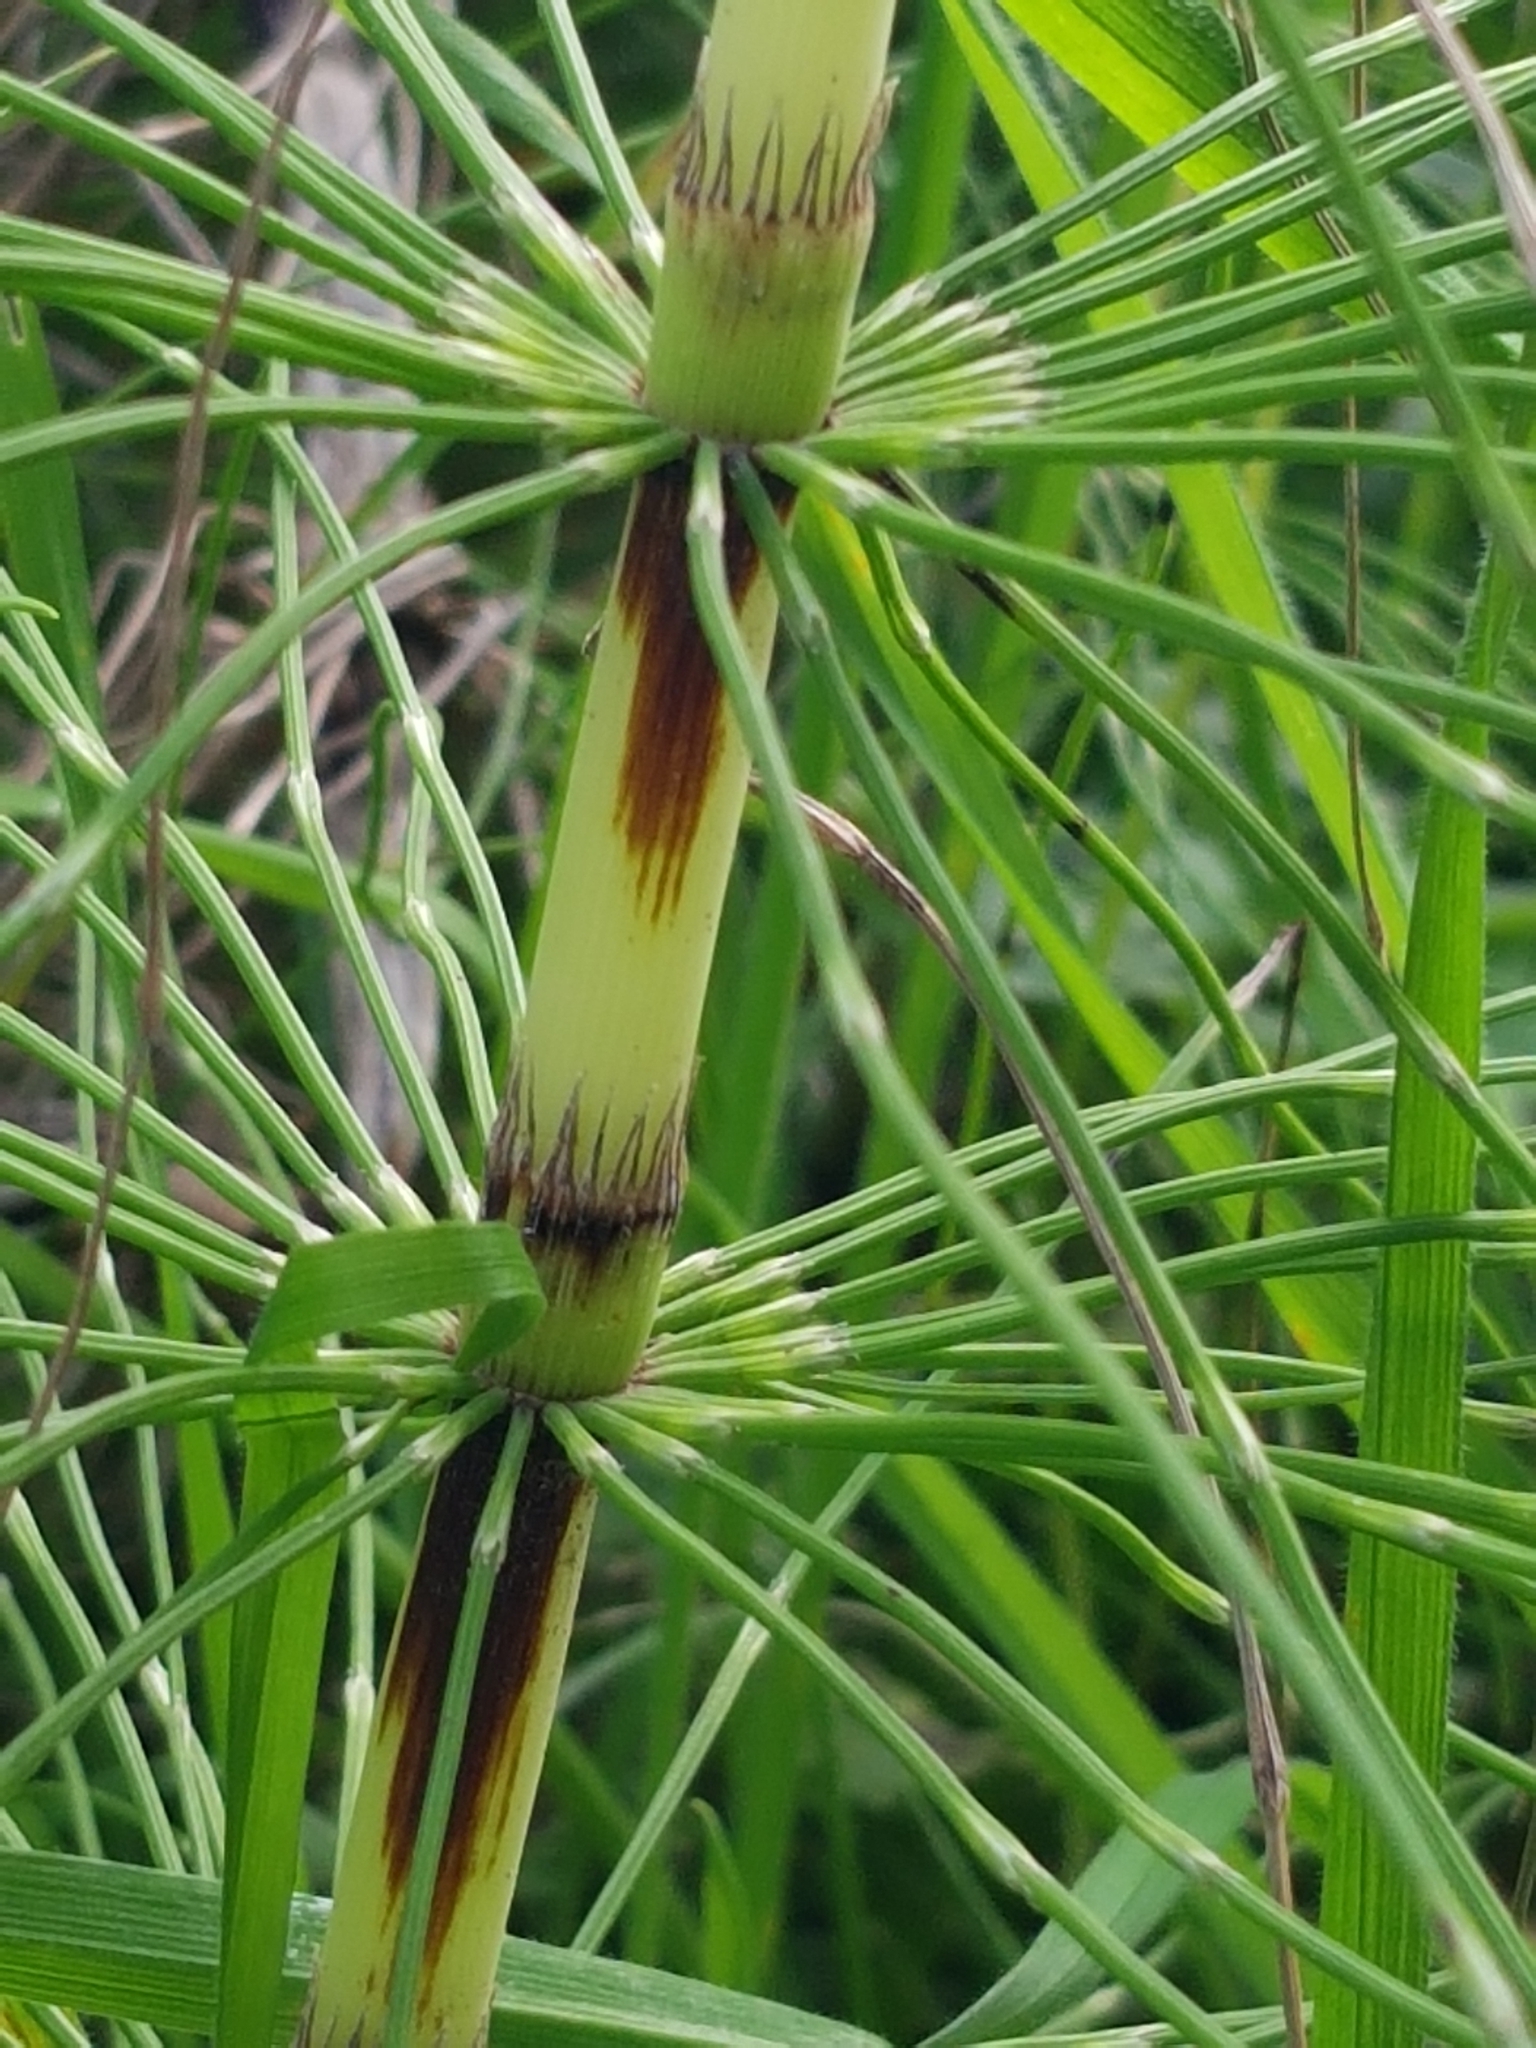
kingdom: Plantae
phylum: Tracheophyta
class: Polypodiopsida
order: Equisetales
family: Equisetaceae
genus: Equisetum
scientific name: Equisetum telmateia
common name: Great horsetail
